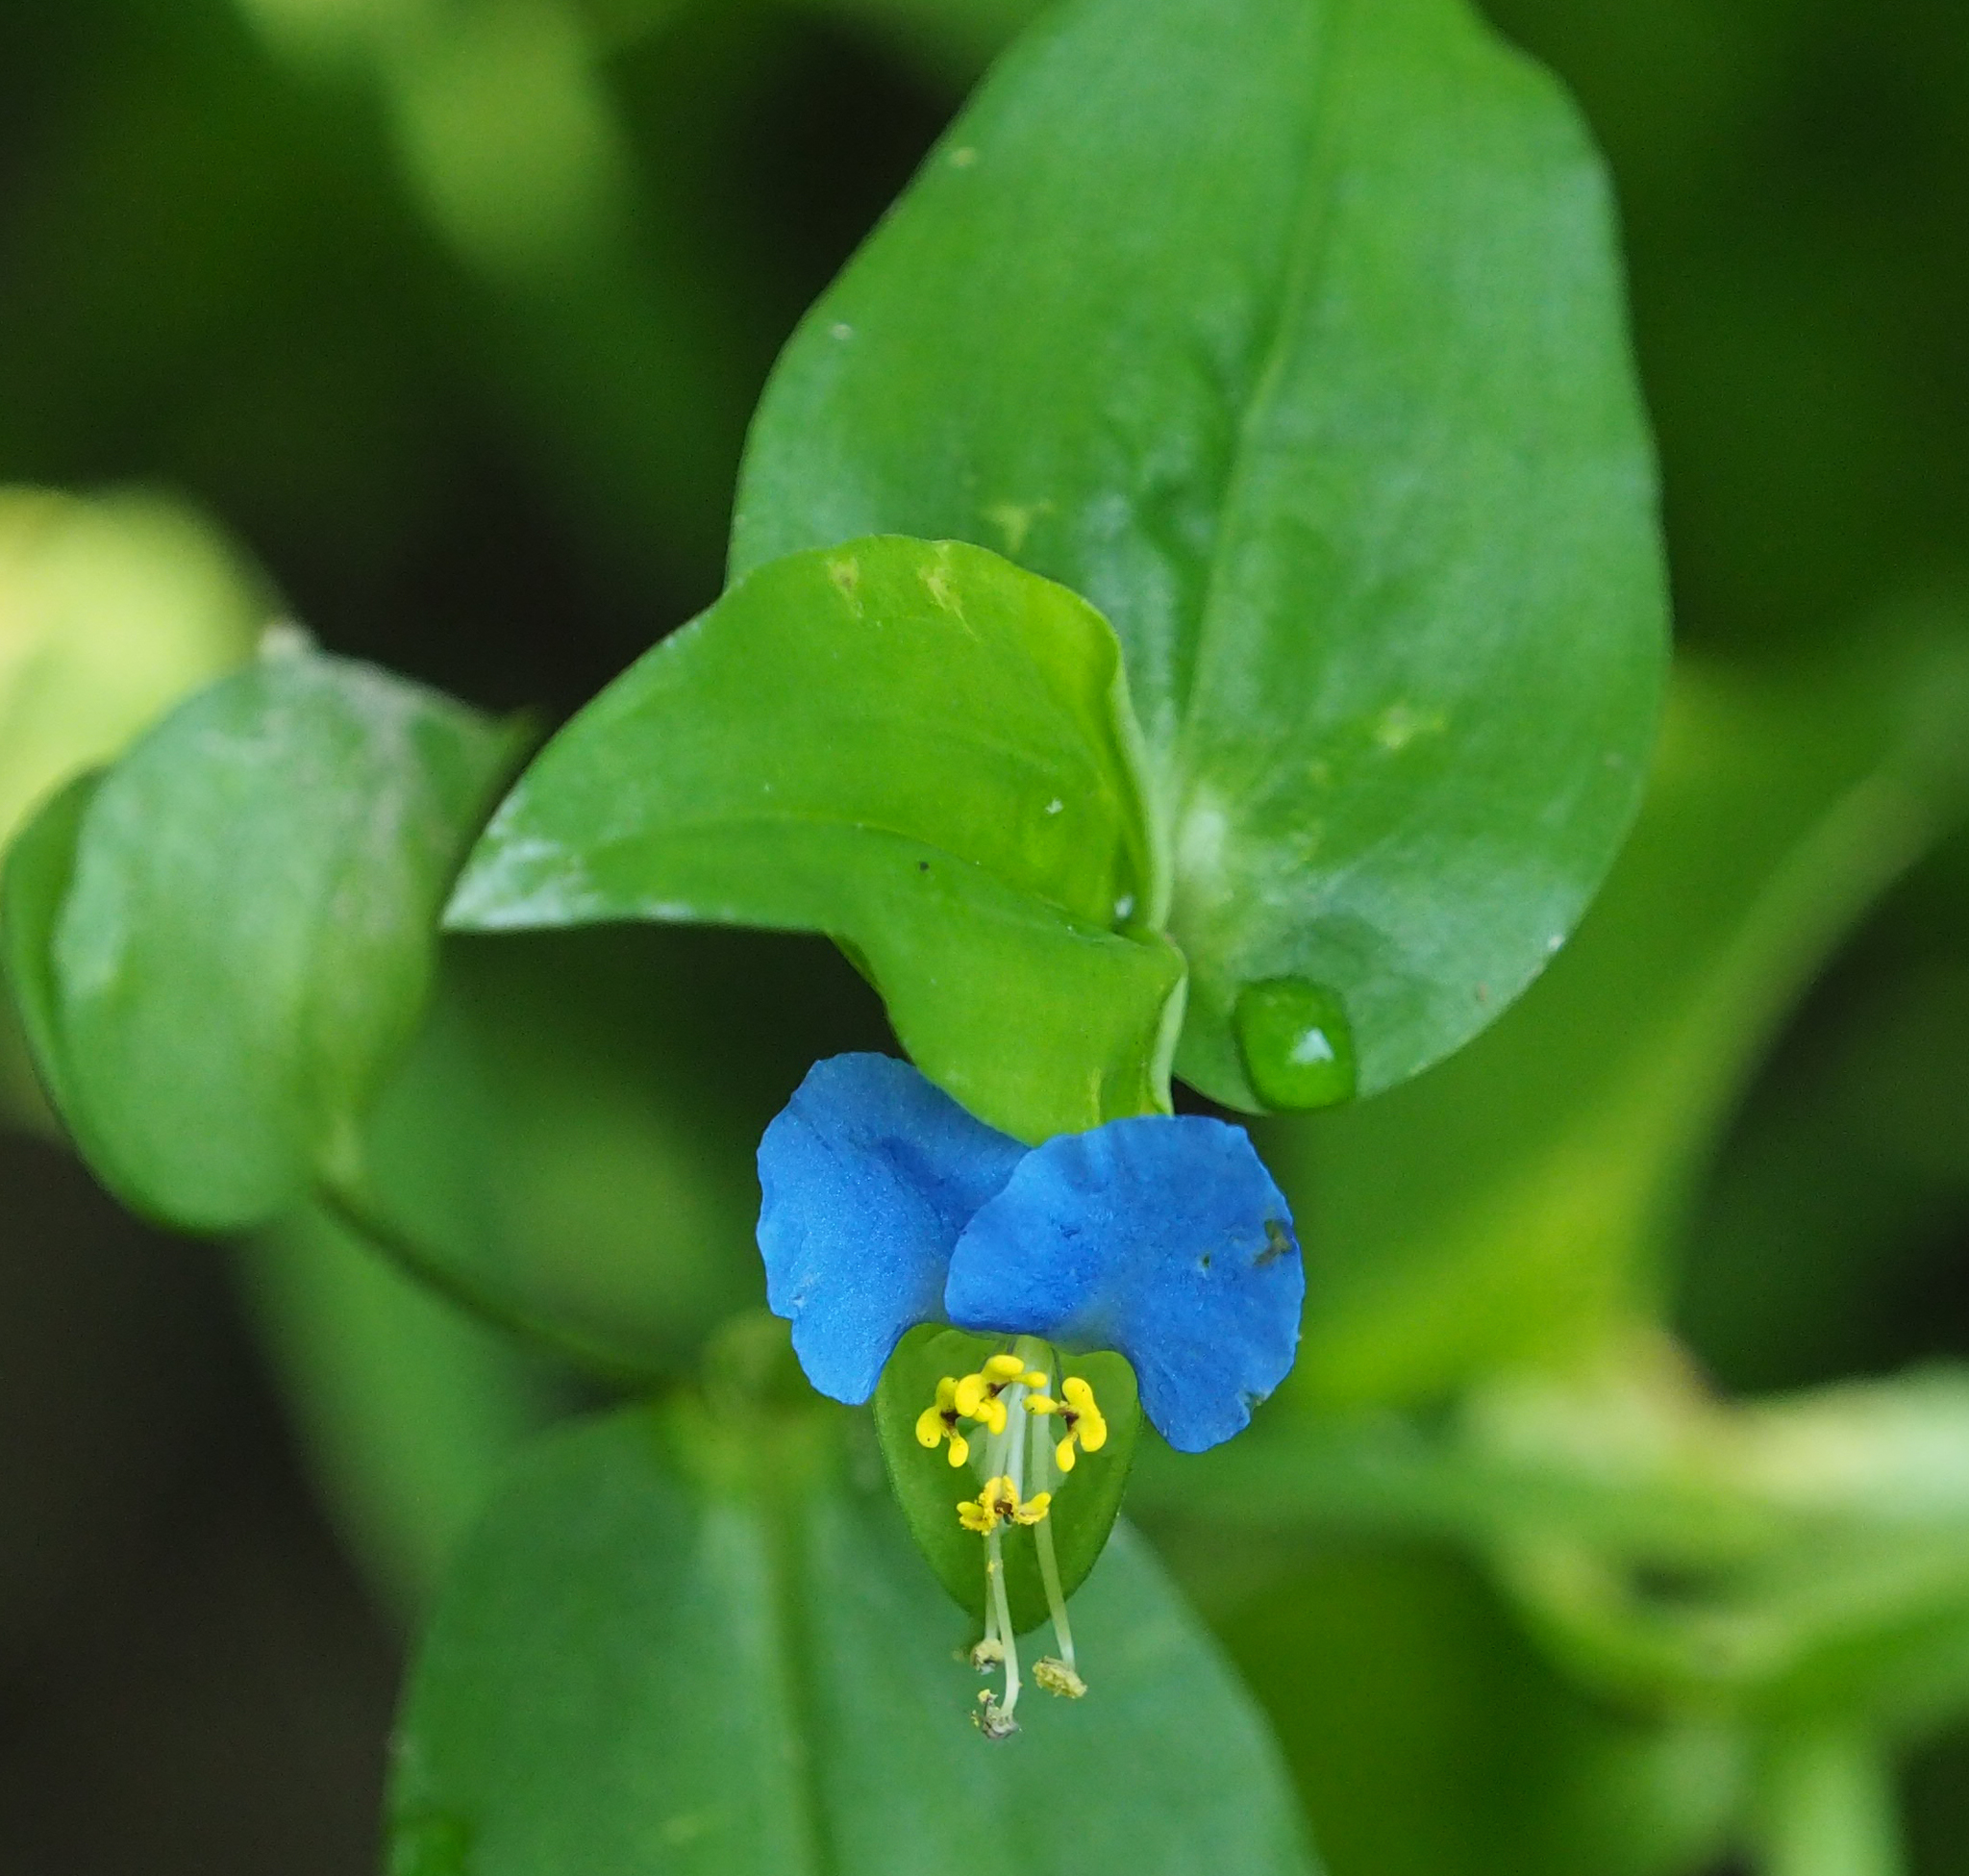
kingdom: Plantae
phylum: Tracheophyta
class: Liliopsida
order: Commelinales
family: Commelinaceae
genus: Commelina
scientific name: Commelina communis
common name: Asiatic dayflower
